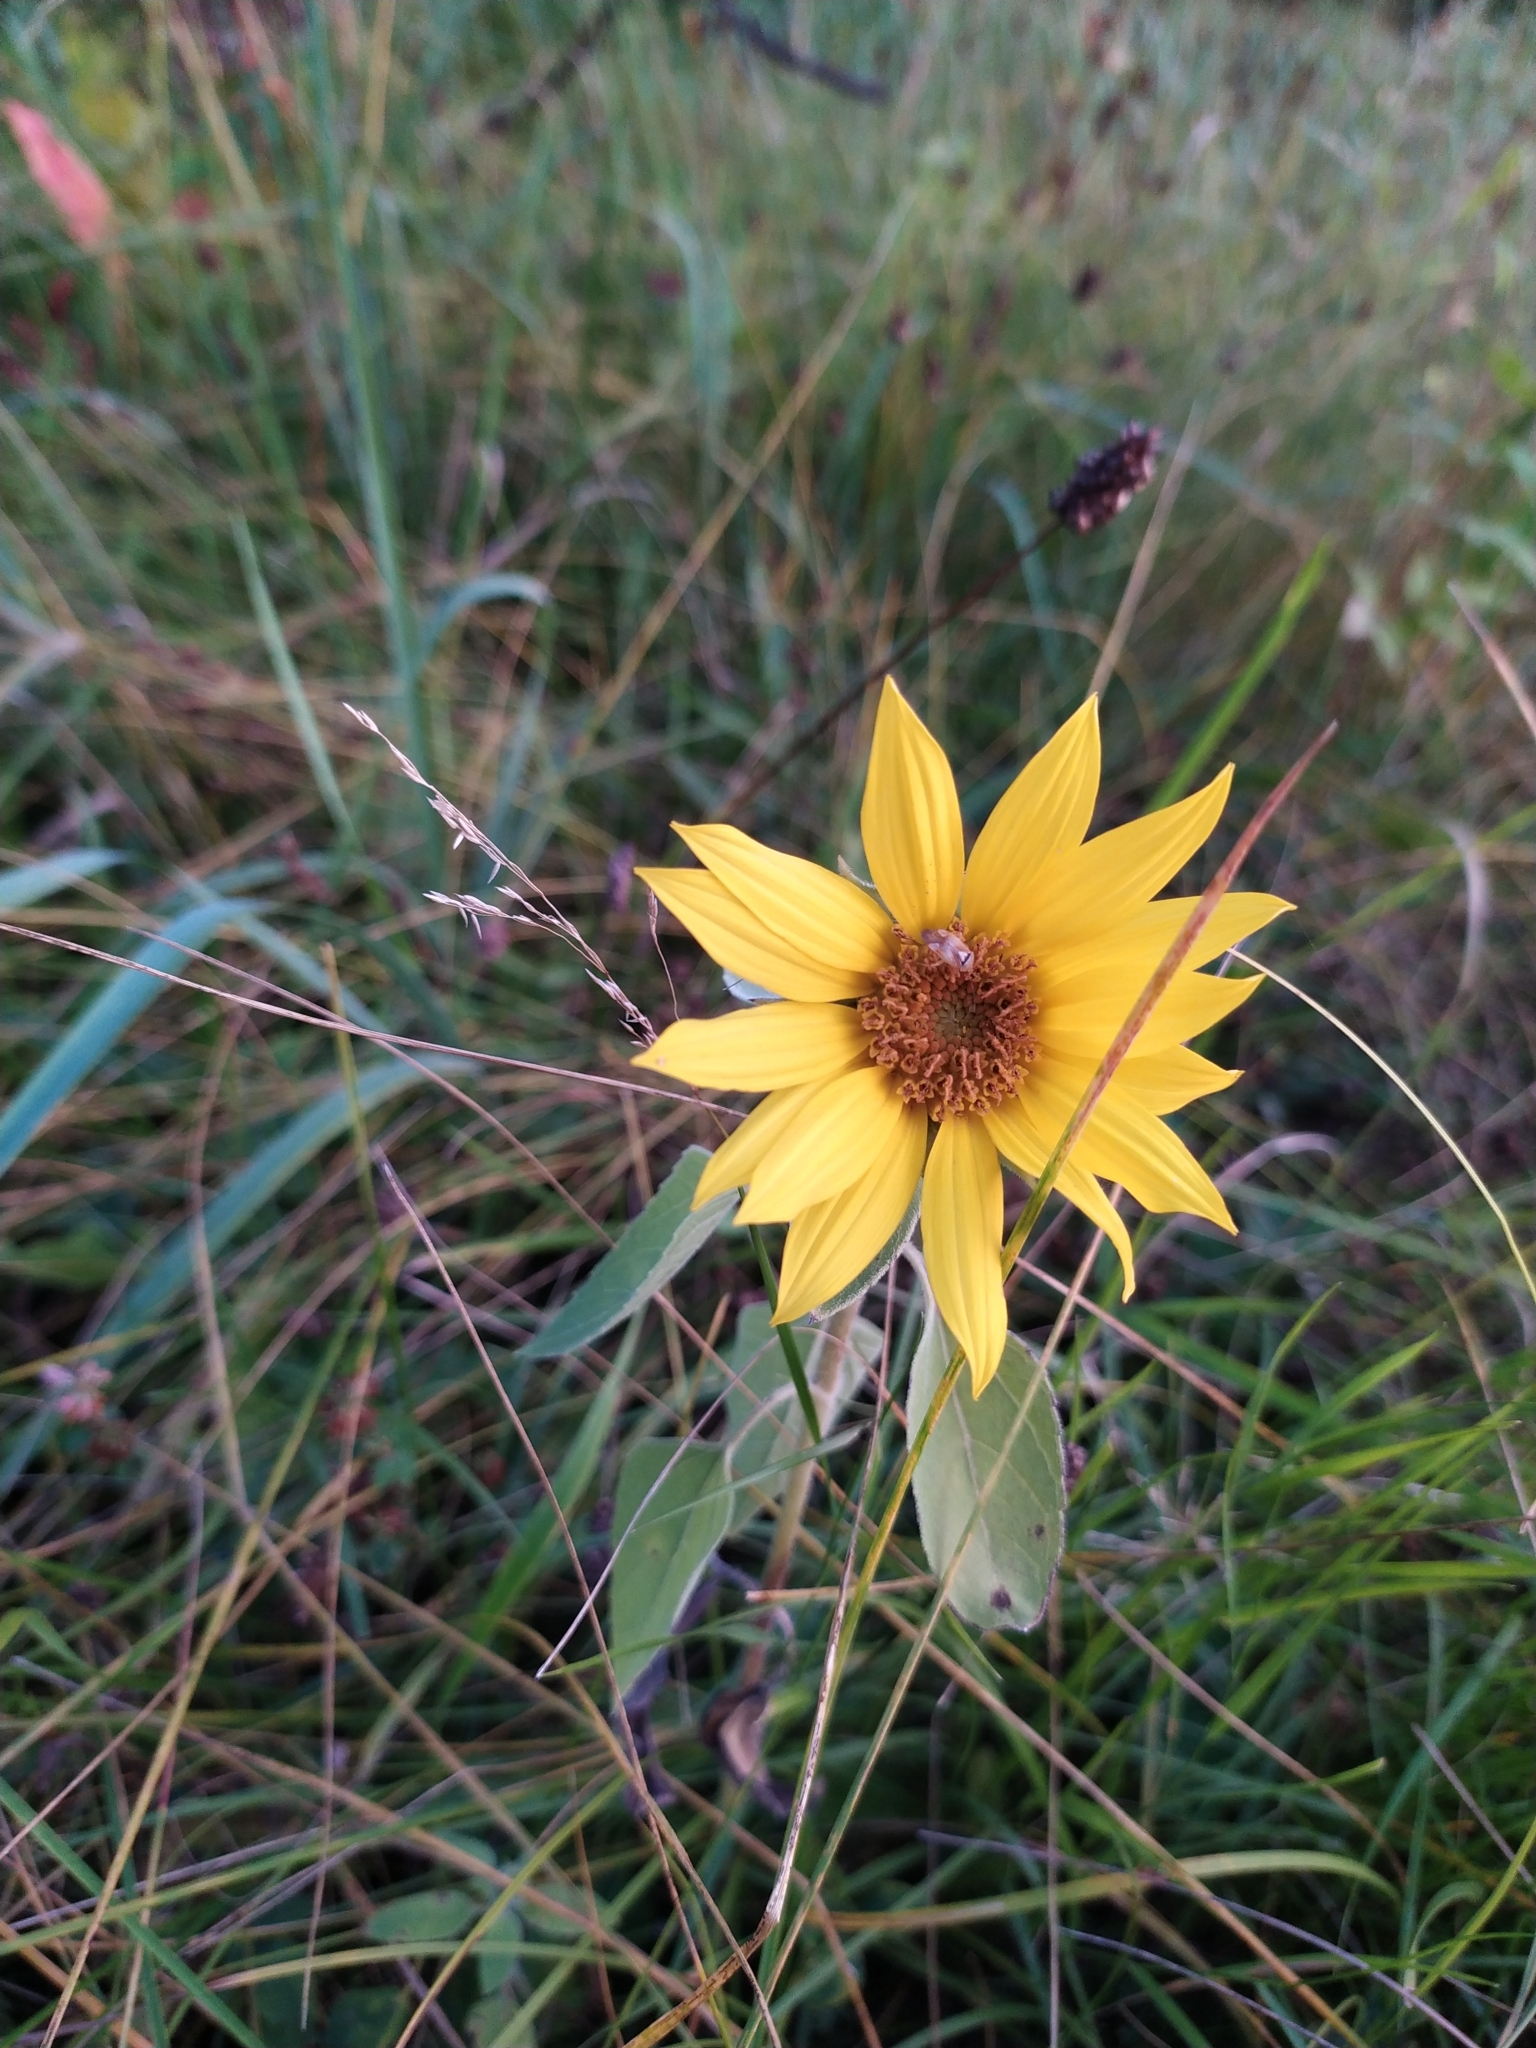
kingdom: Plantae
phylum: Tracheophyta
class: Magnoliopsida
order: Asterales
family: Asteraceae
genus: Helianthus
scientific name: Helianthus annuus
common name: Sunflower
